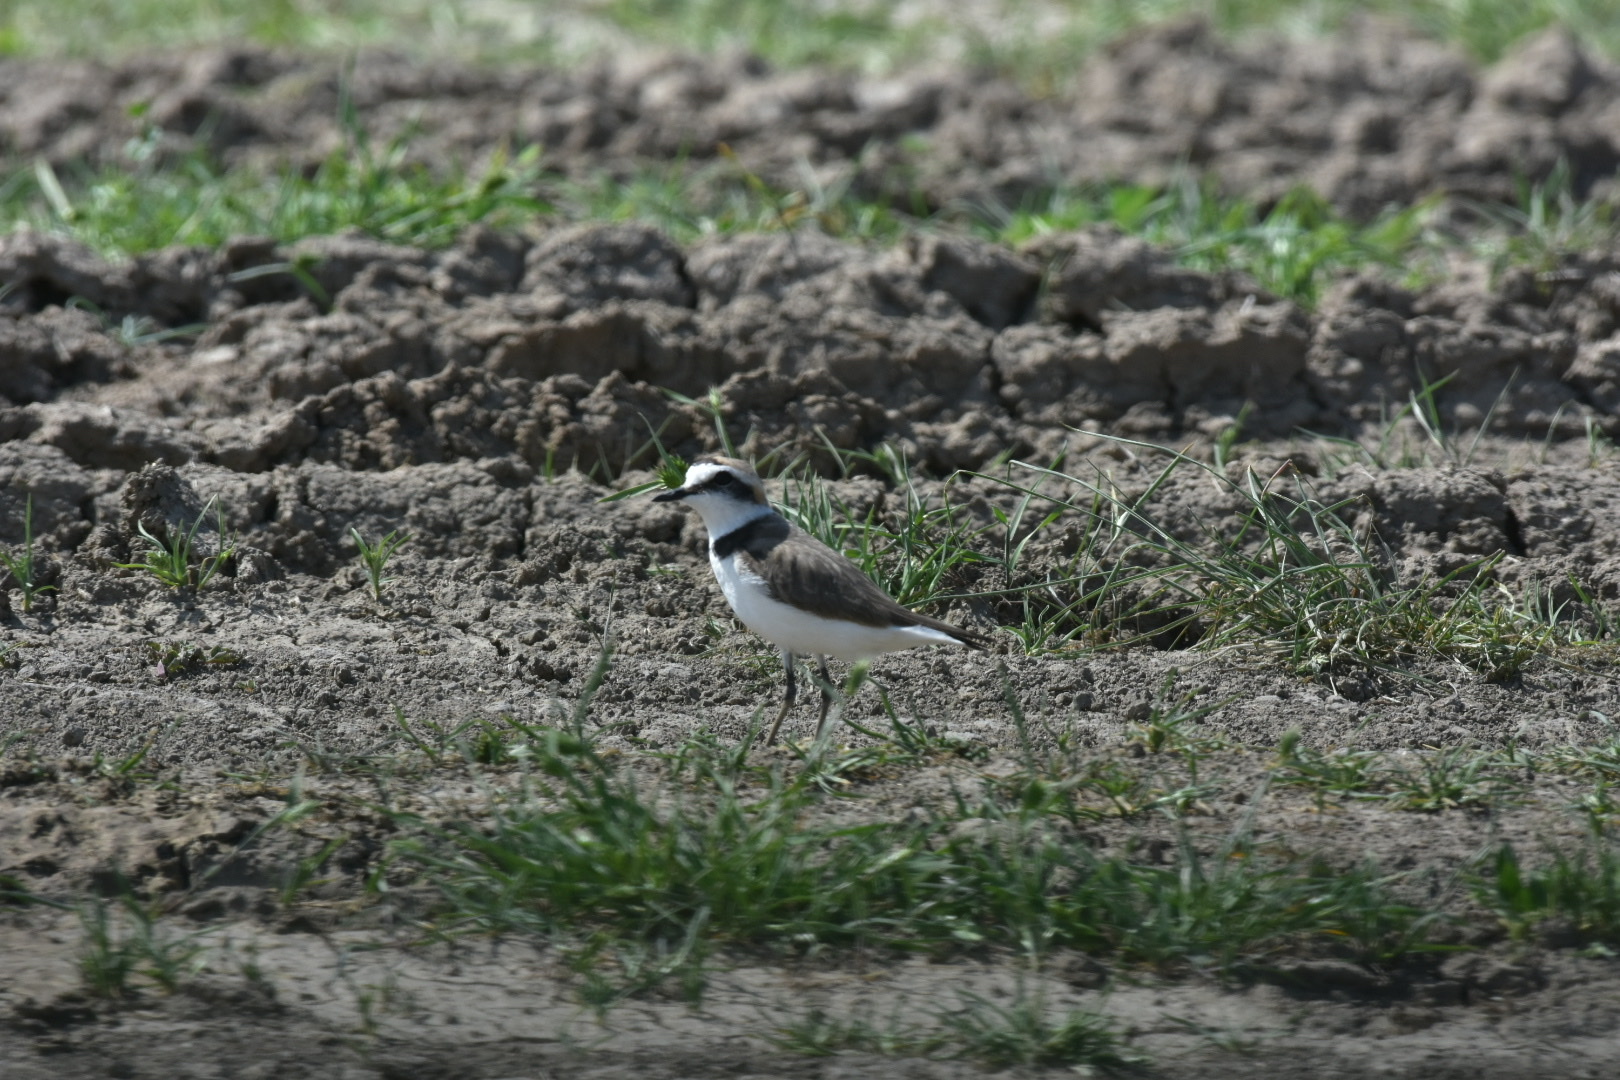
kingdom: Animalia
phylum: Chordata
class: Aves
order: Charadriiformes
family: Charadriidae
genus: Charadrius
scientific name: Charadrius alexandrinus
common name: Kentish plover
